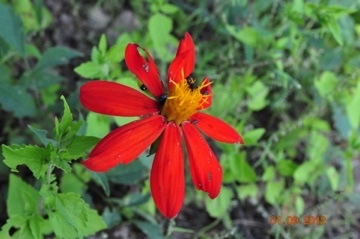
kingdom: Plantae
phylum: Tracheophyta
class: Magnoliopsida
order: Asterales
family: Asteraceae
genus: Dahlia
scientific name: Dahlia coccinea
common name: Red dahlia
